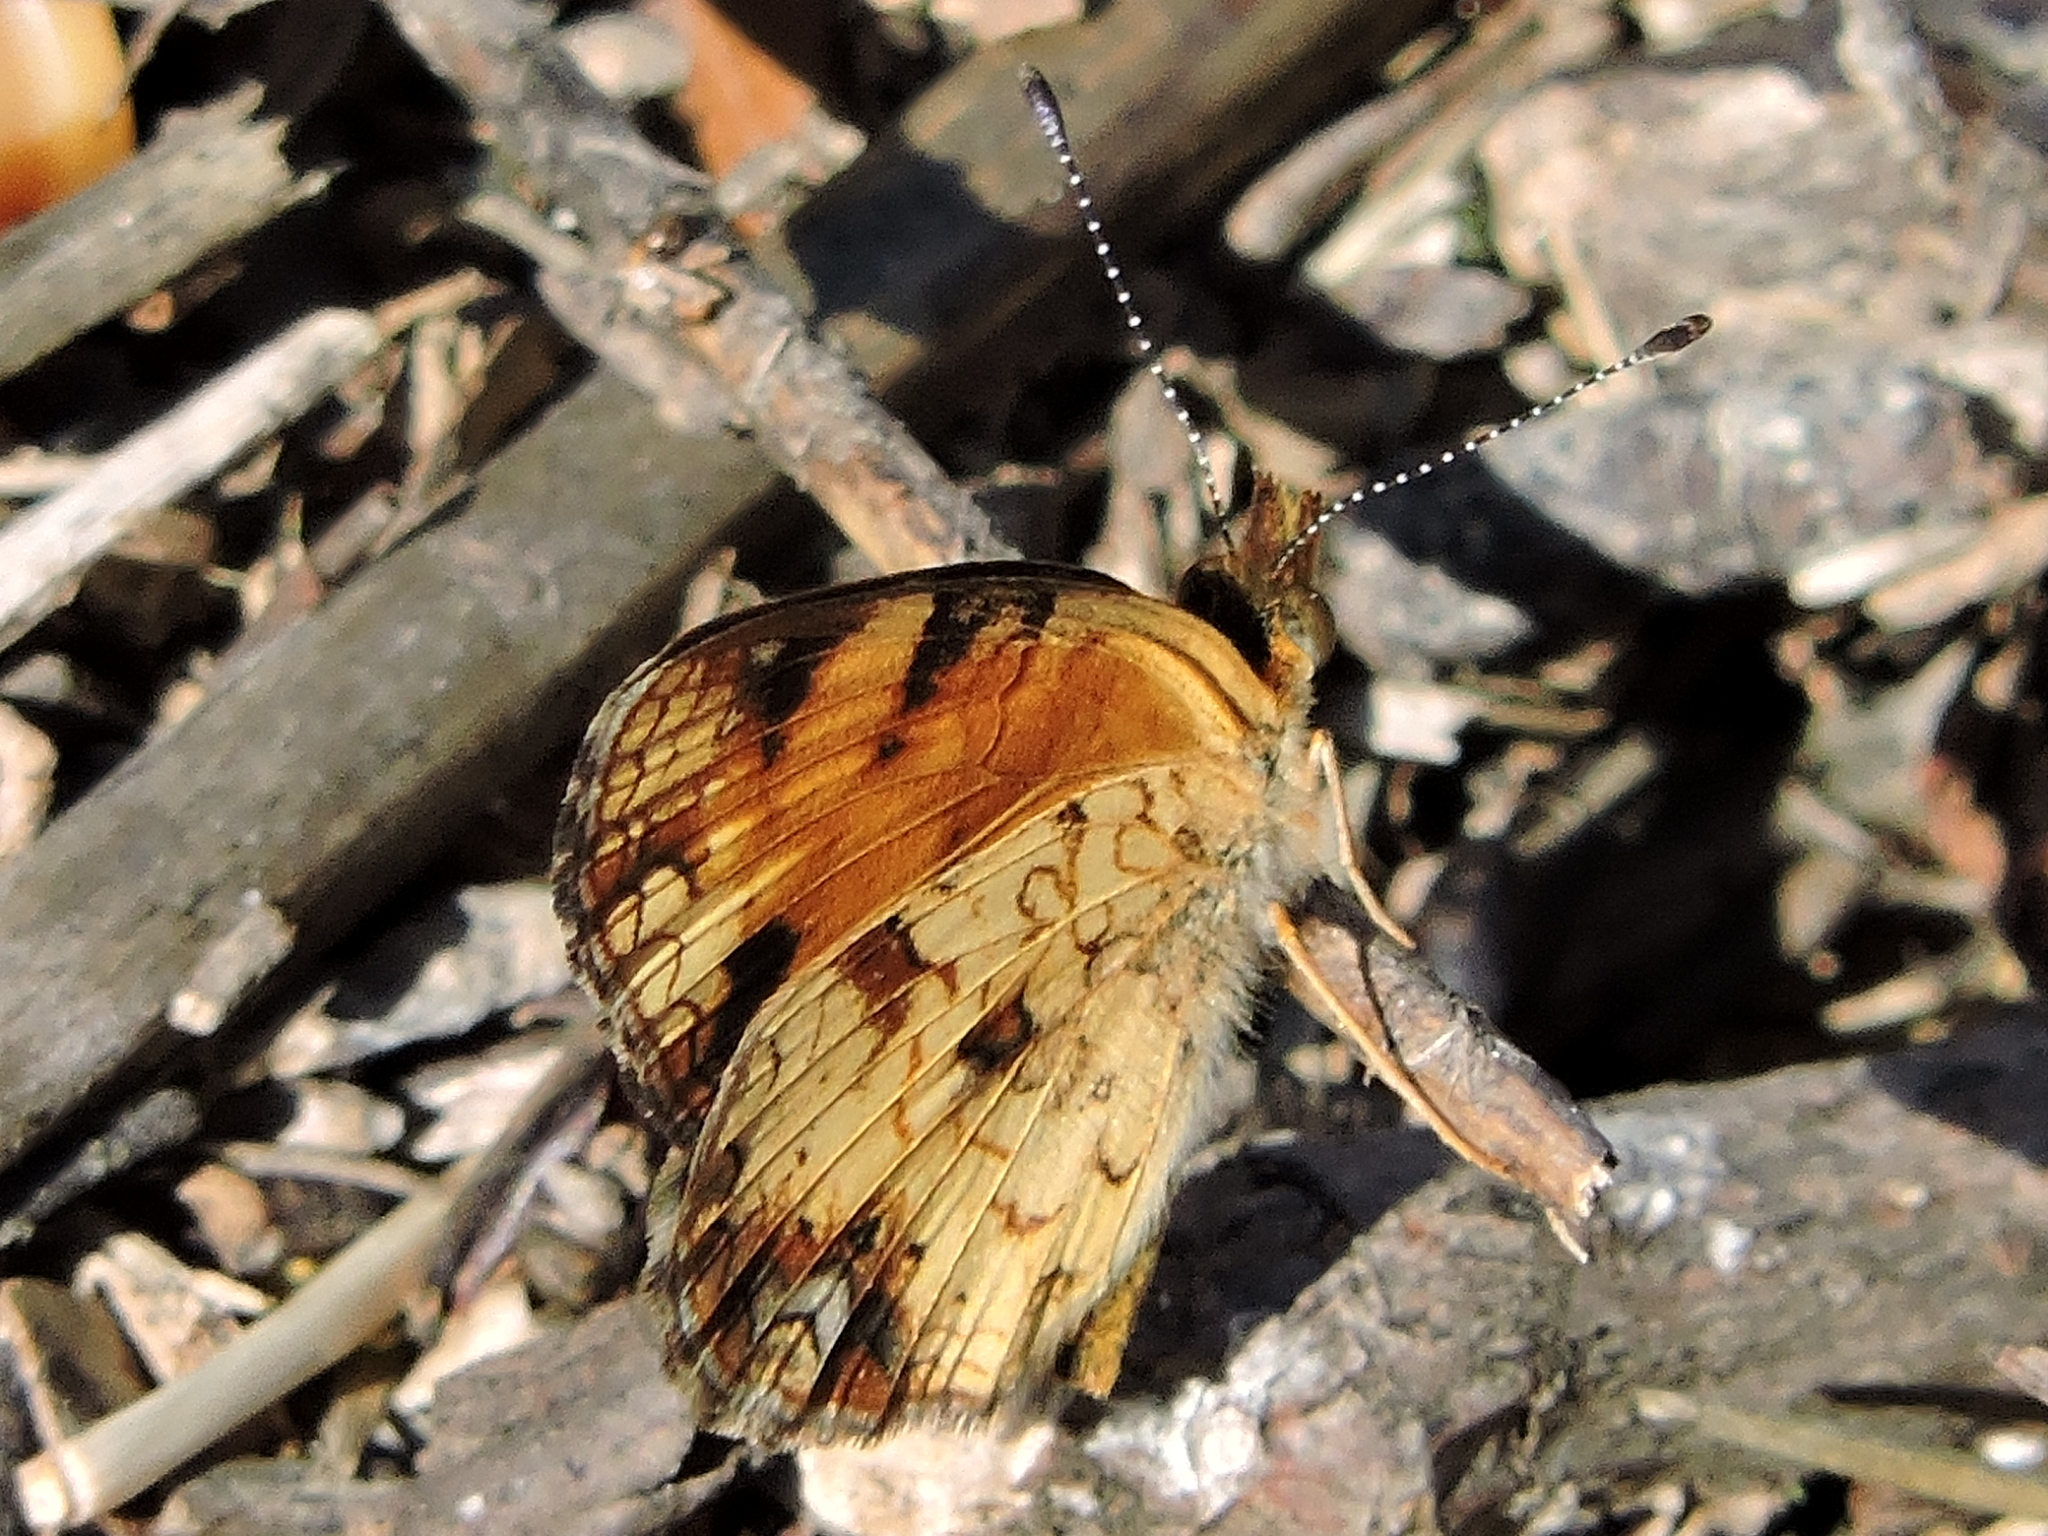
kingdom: Animalia
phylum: Arthropoda
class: Insecta
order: Lepidoptera
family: Nymphalidae
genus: Phyciodes
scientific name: Phyciodes tharos
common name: Pearl crescent
